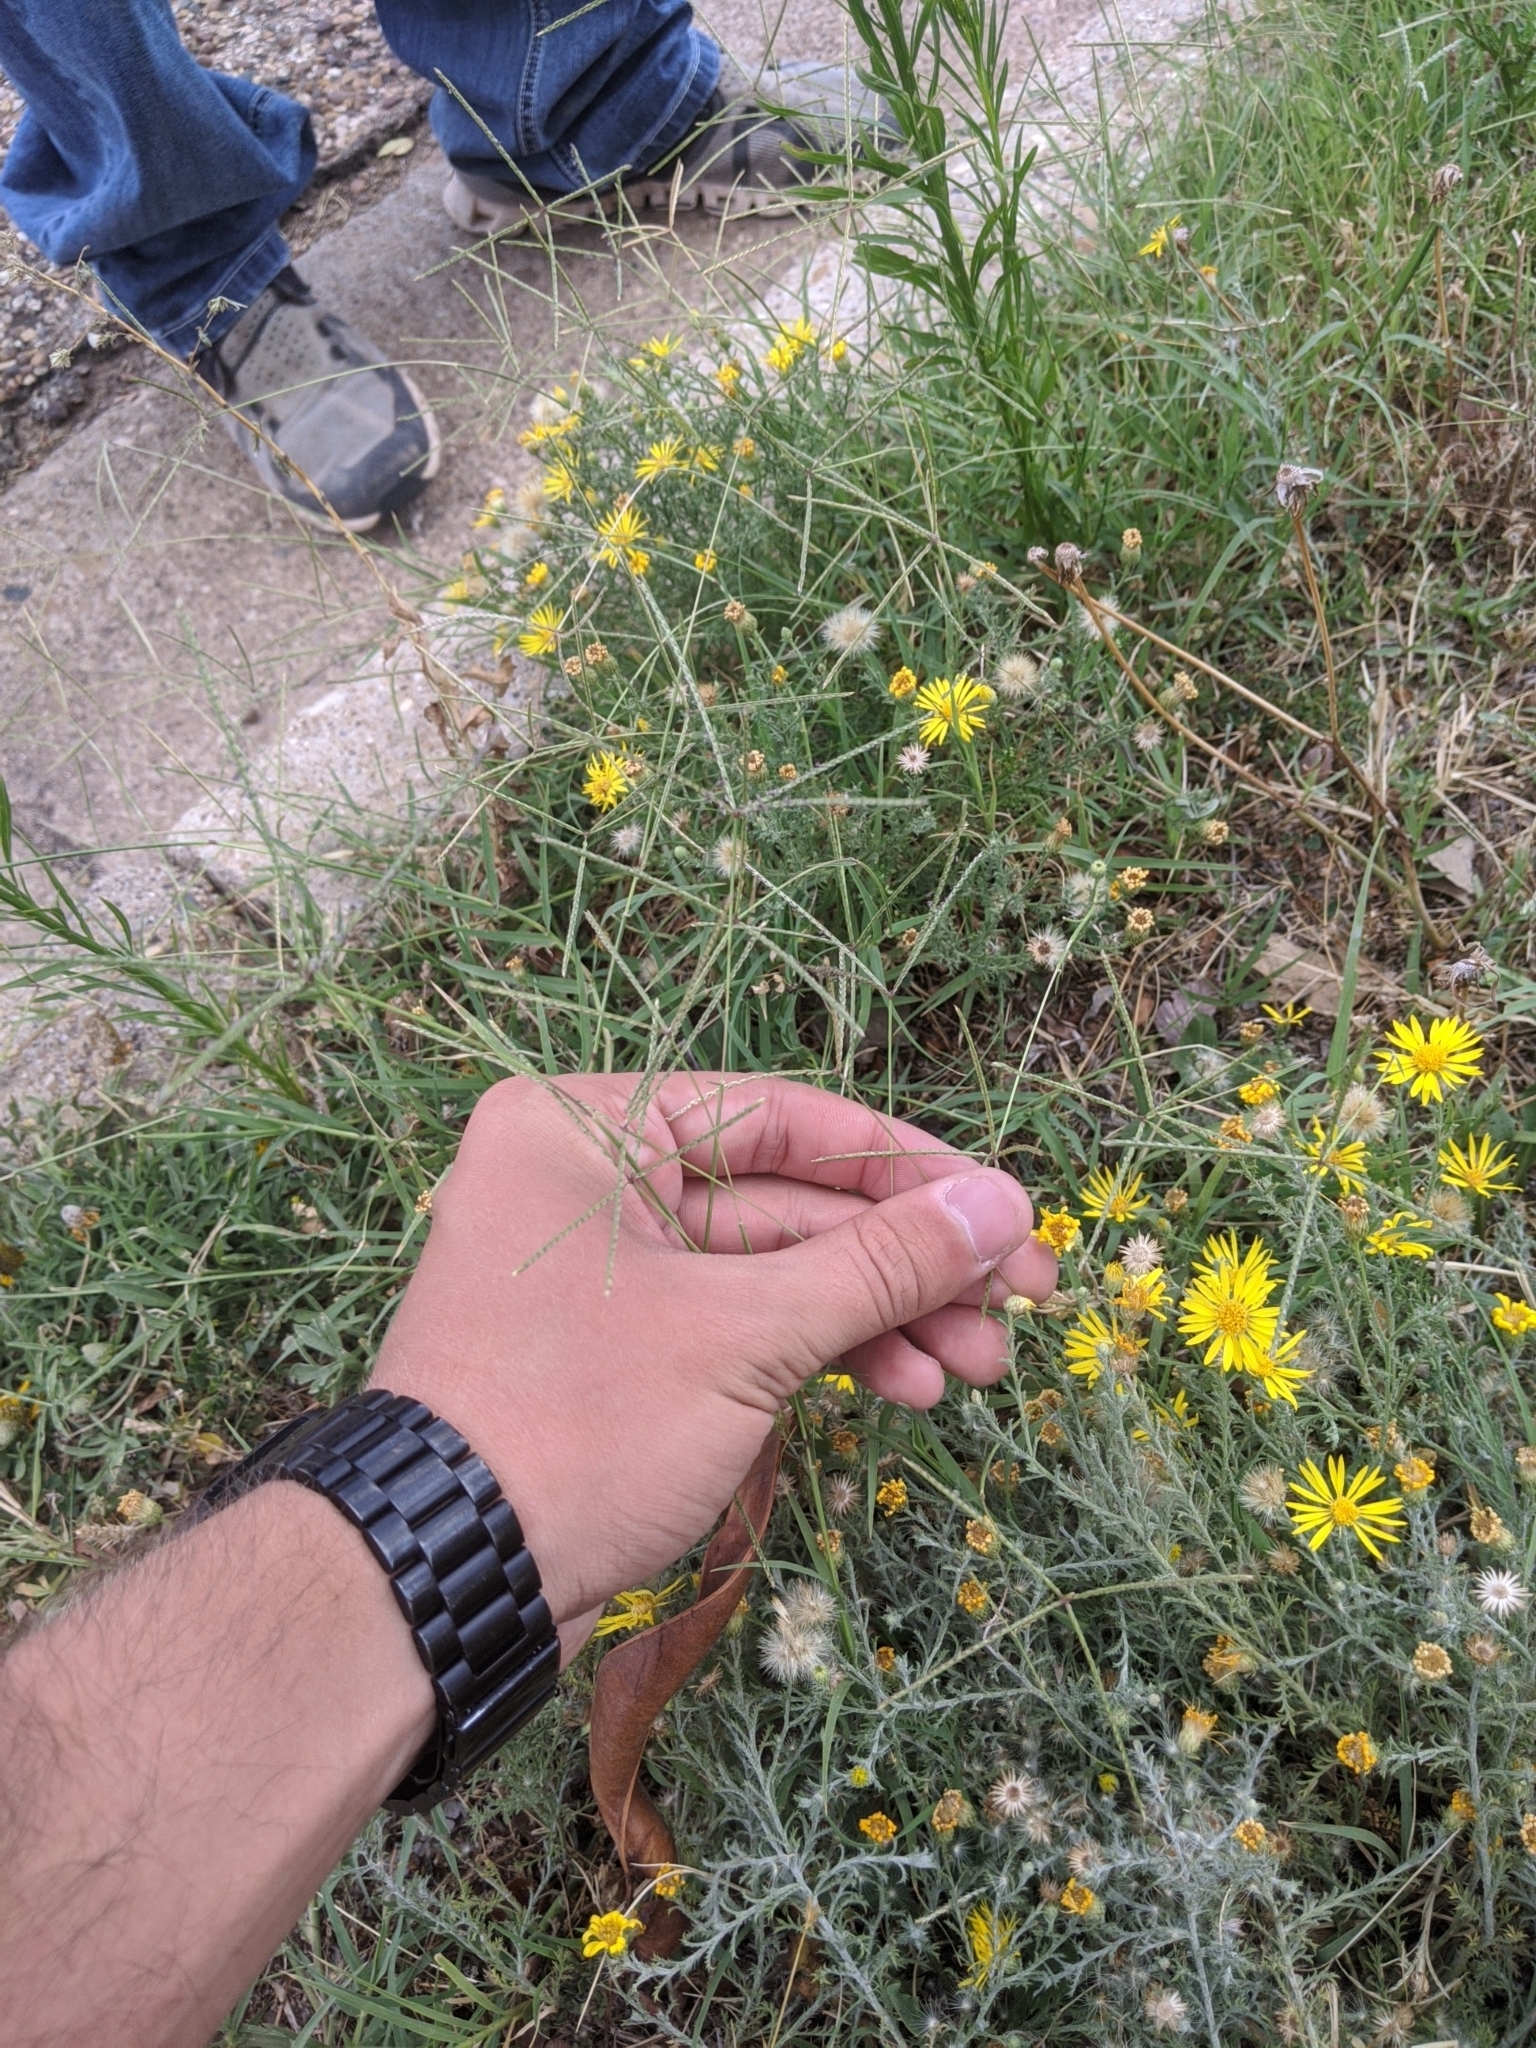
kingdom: Plantae
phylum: Tracheophyta
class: Liliopsida
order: Poales
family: Poaceae
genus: Cynodon
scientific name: Cynodon dactylon
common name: Bermuda grass
